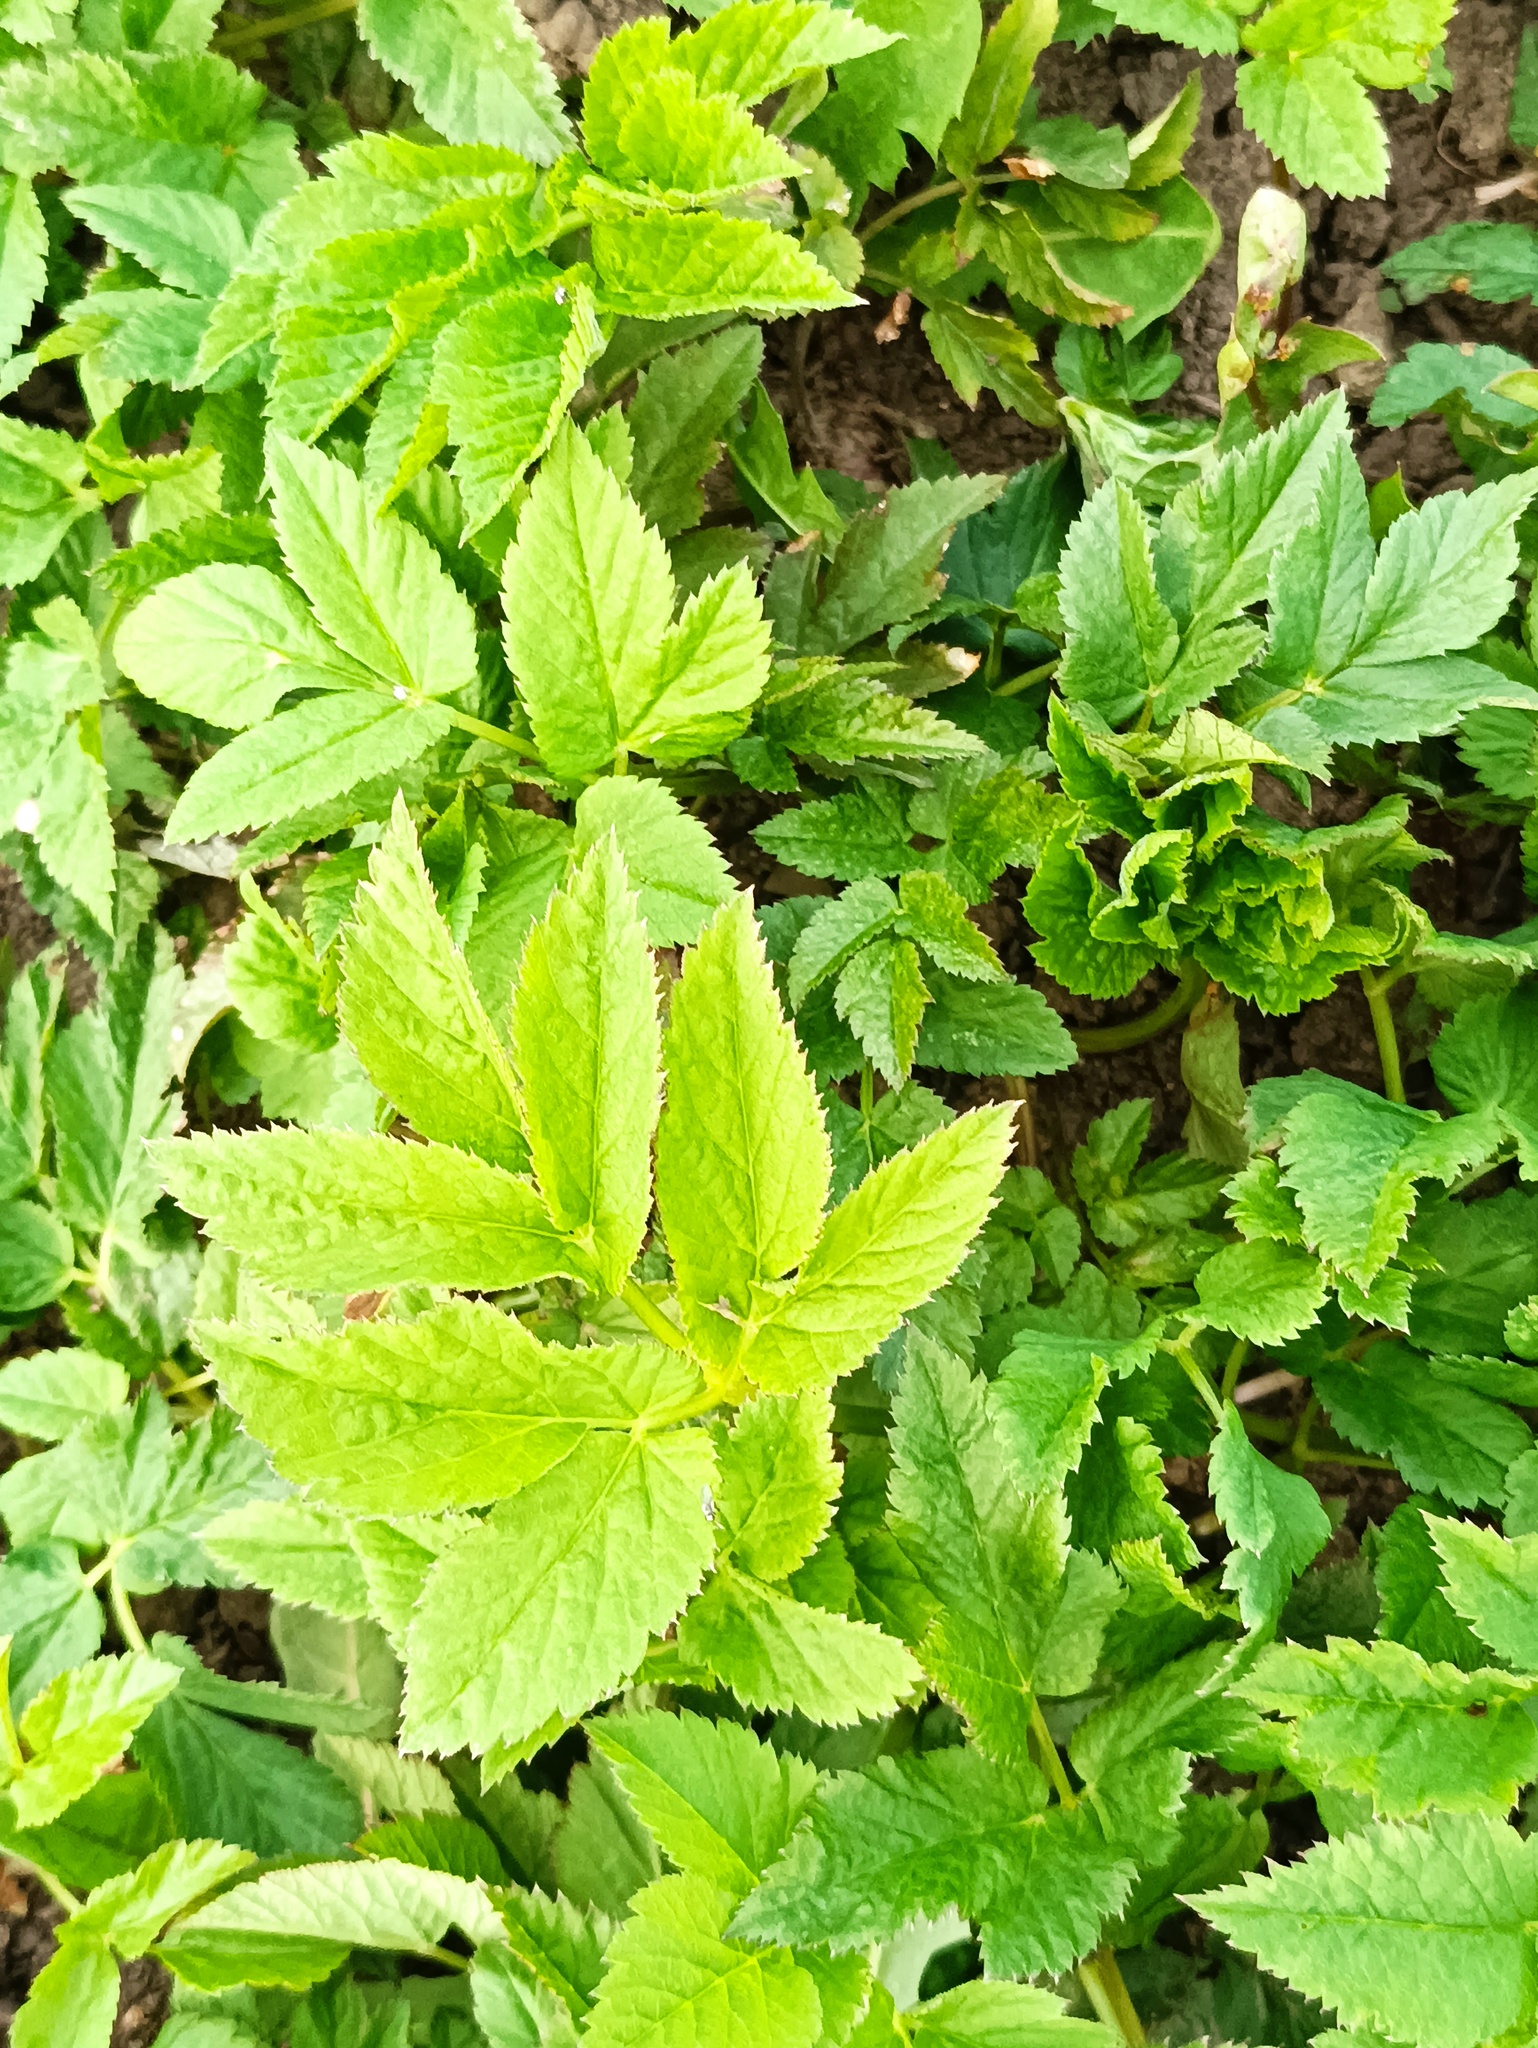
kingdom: Plantae
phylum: Tracheophyta
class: Magnoliopsida
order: Apiales
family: Apiaceae
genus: Aegopodium
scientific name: Aegopodium podagraria
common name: Ground-elder
